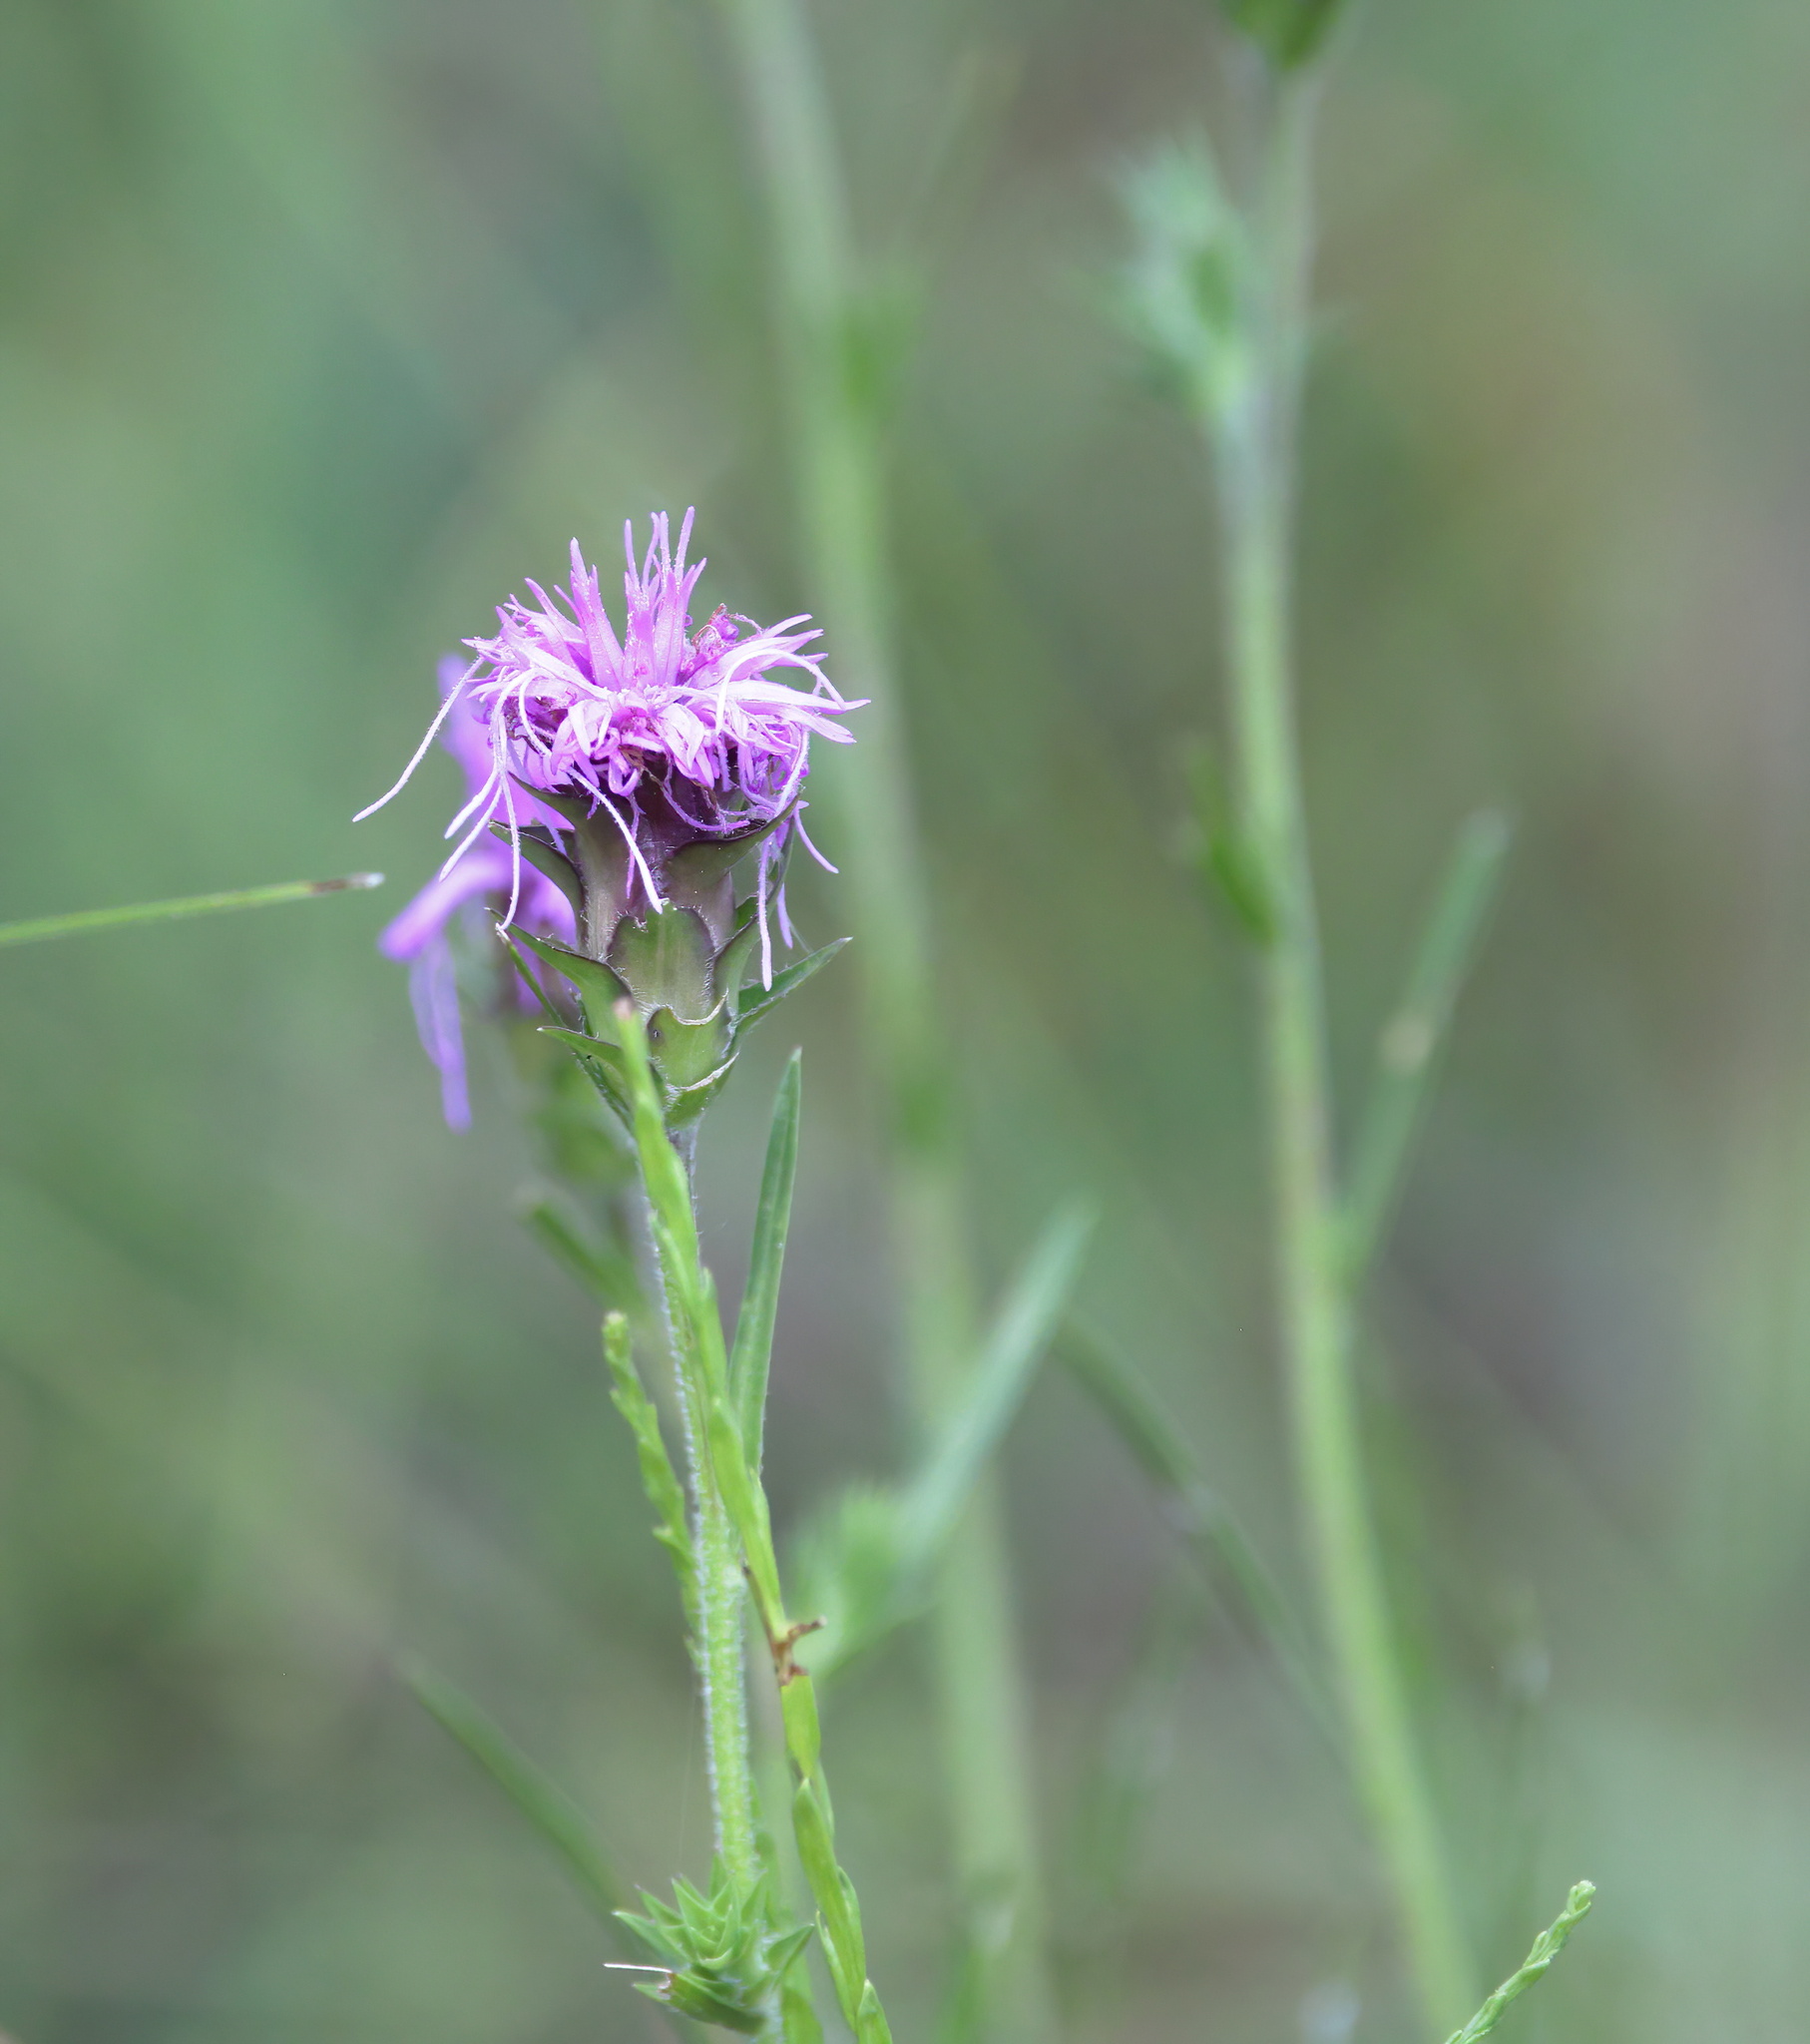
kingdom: Plantae
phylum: Tracheophyta
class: Magnoliopsida
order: Asterales
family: Asteraceae
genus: Liatris
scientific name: Liatris squarrosa
